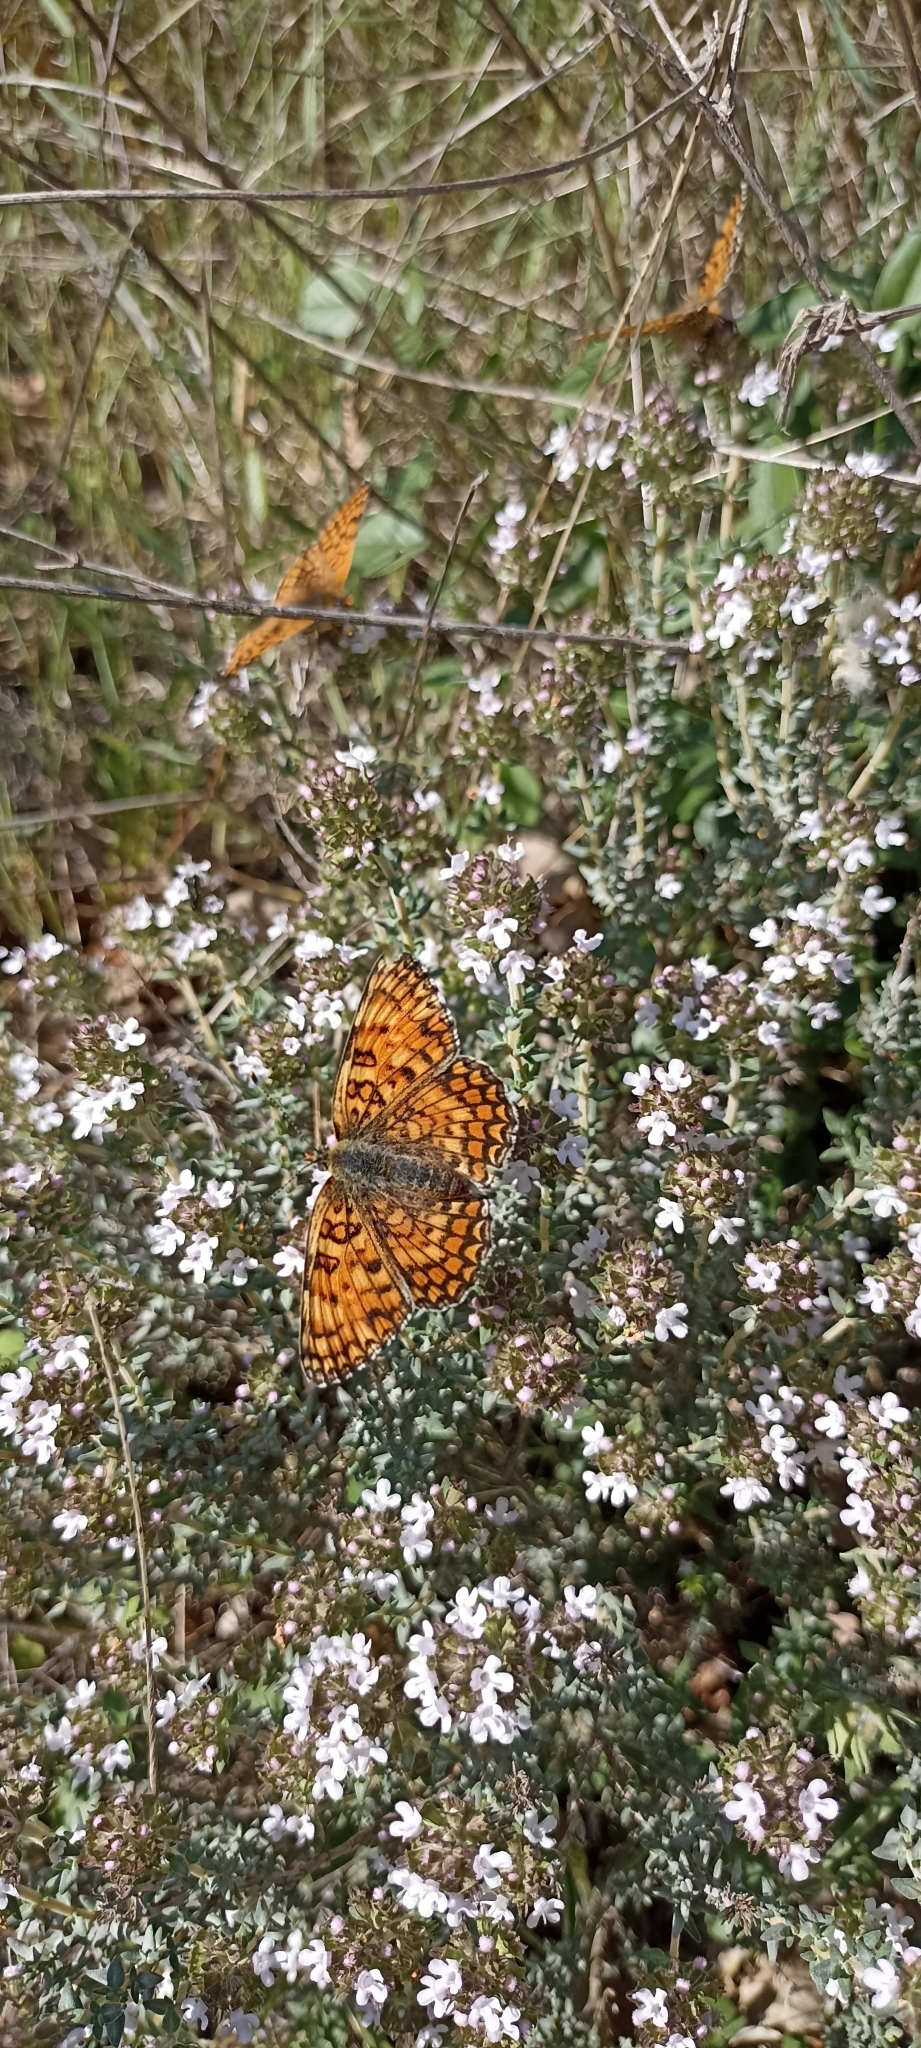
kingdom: Animalia
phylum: Arthropoda
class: Insecta
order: Lepidoptera
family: Nymphalidae
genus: Melitaea
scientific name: Melitaea phoebe
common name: Knapweed fritillary
